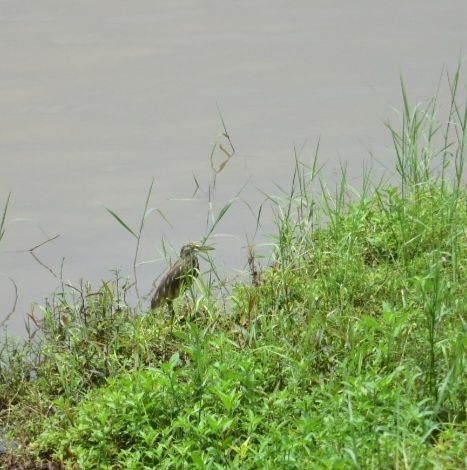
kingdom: Animalia
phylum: Chordata
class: Aves
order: Pelecaniformes
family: Ardeidae
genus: Ardeola
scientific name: Ardeola grayii
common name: Indian pond heron
